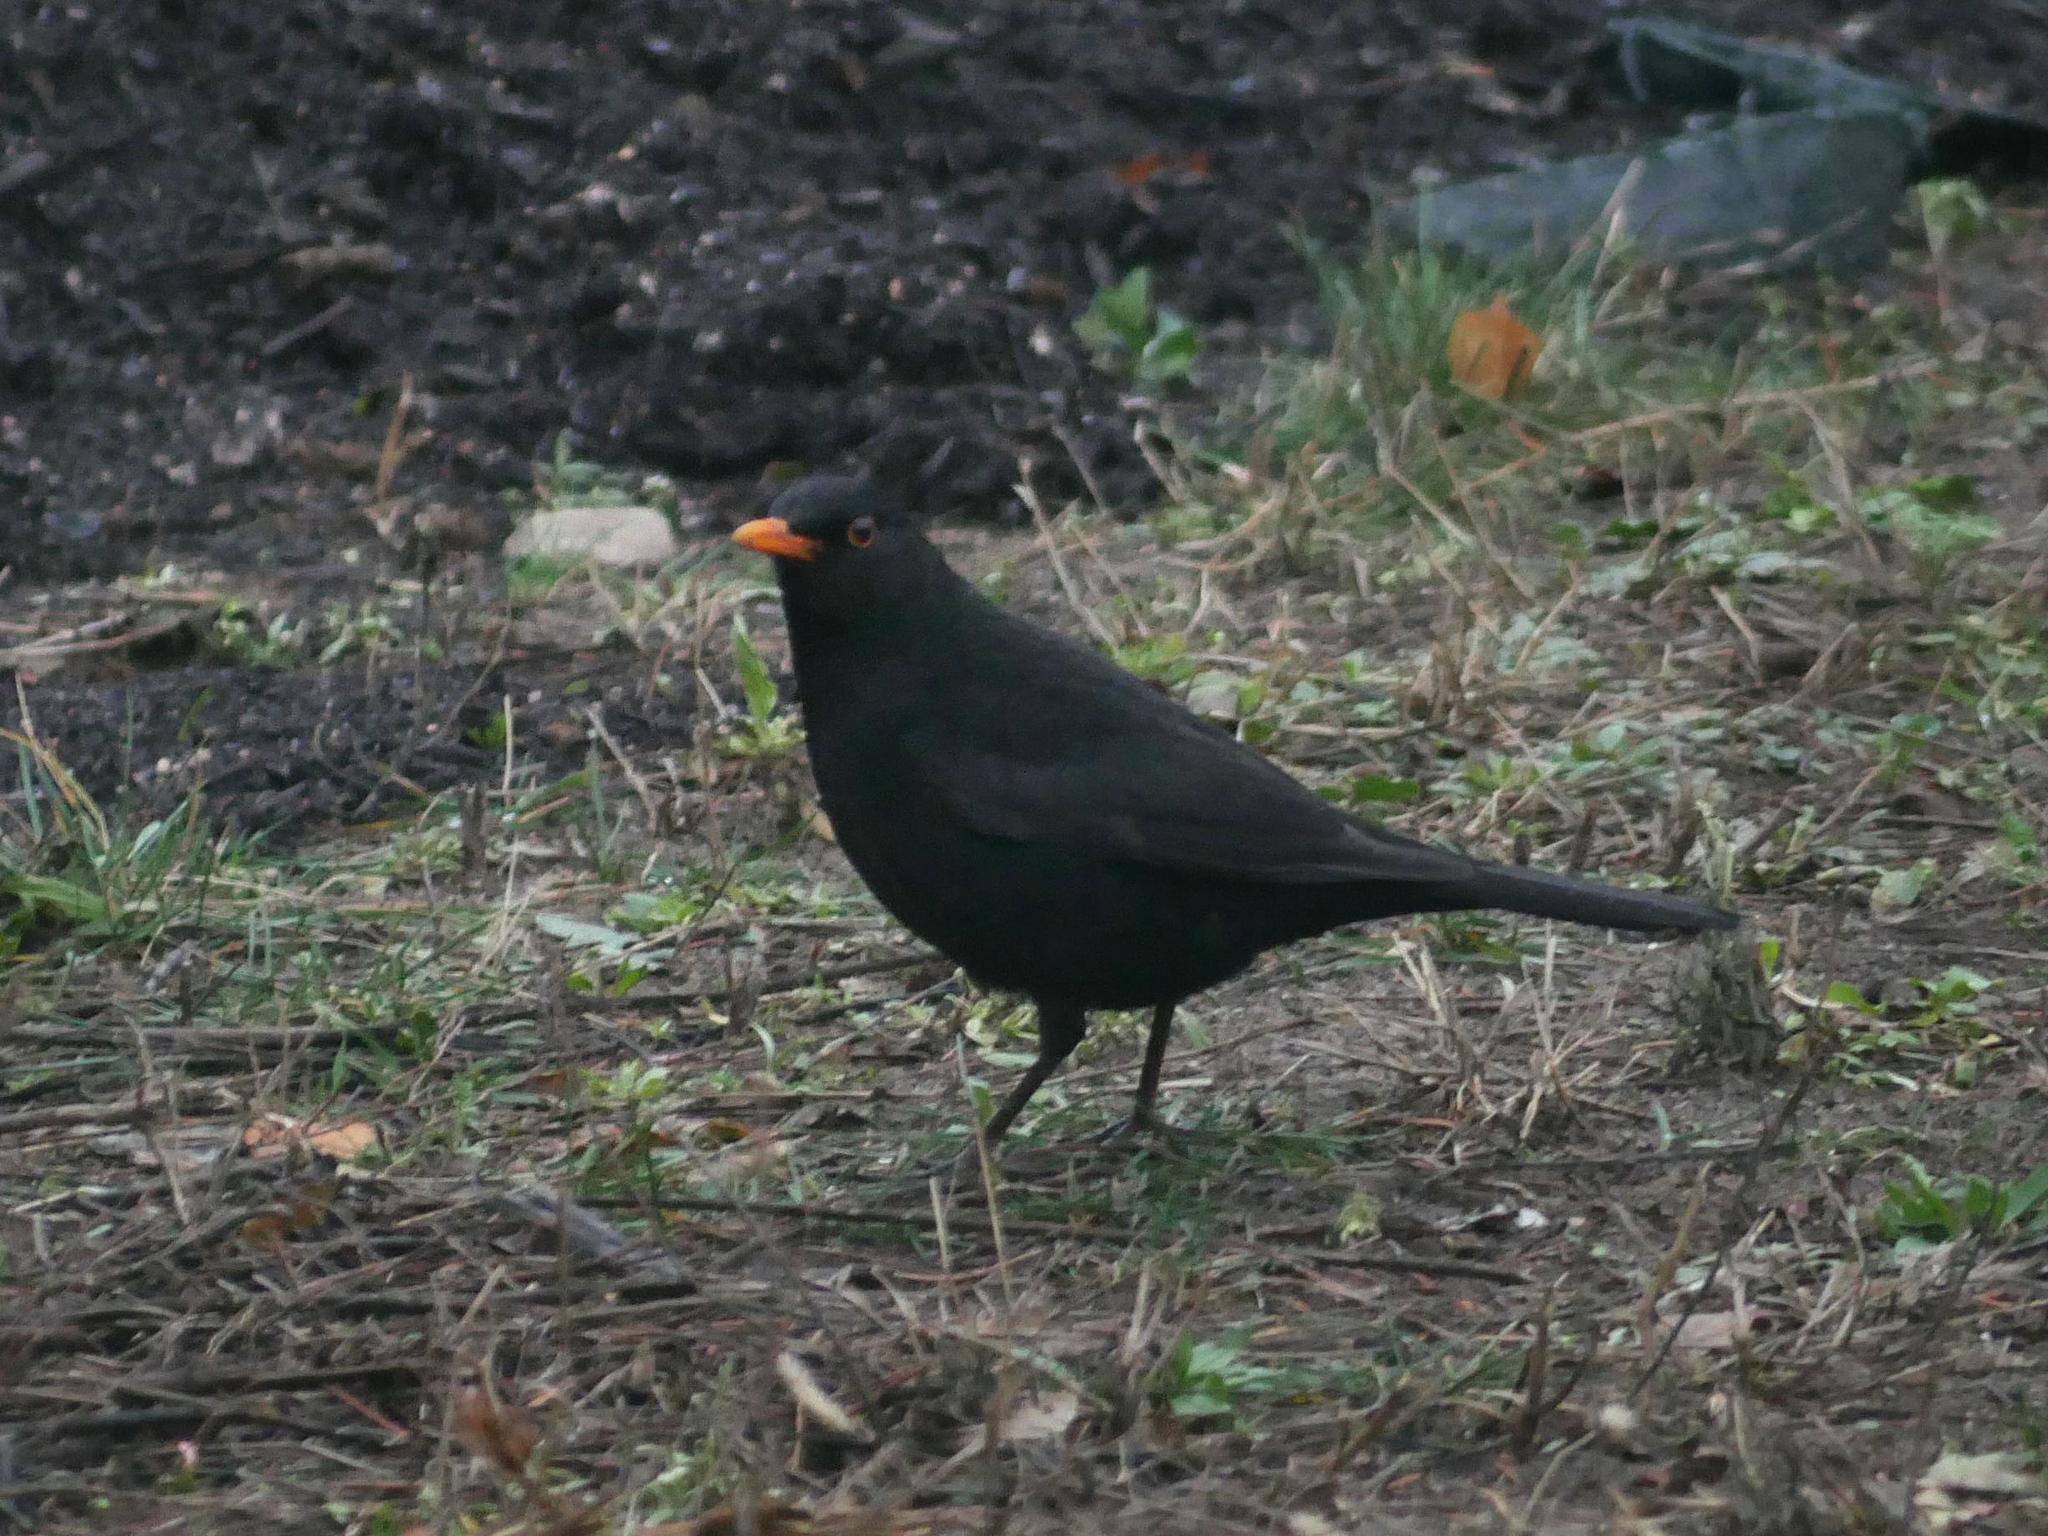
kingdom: Animalia
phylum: Chordata
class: Aves
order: Passeriformes
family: Turdidae
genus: Turdus
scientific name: Turdus merula
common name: Common blackbird
